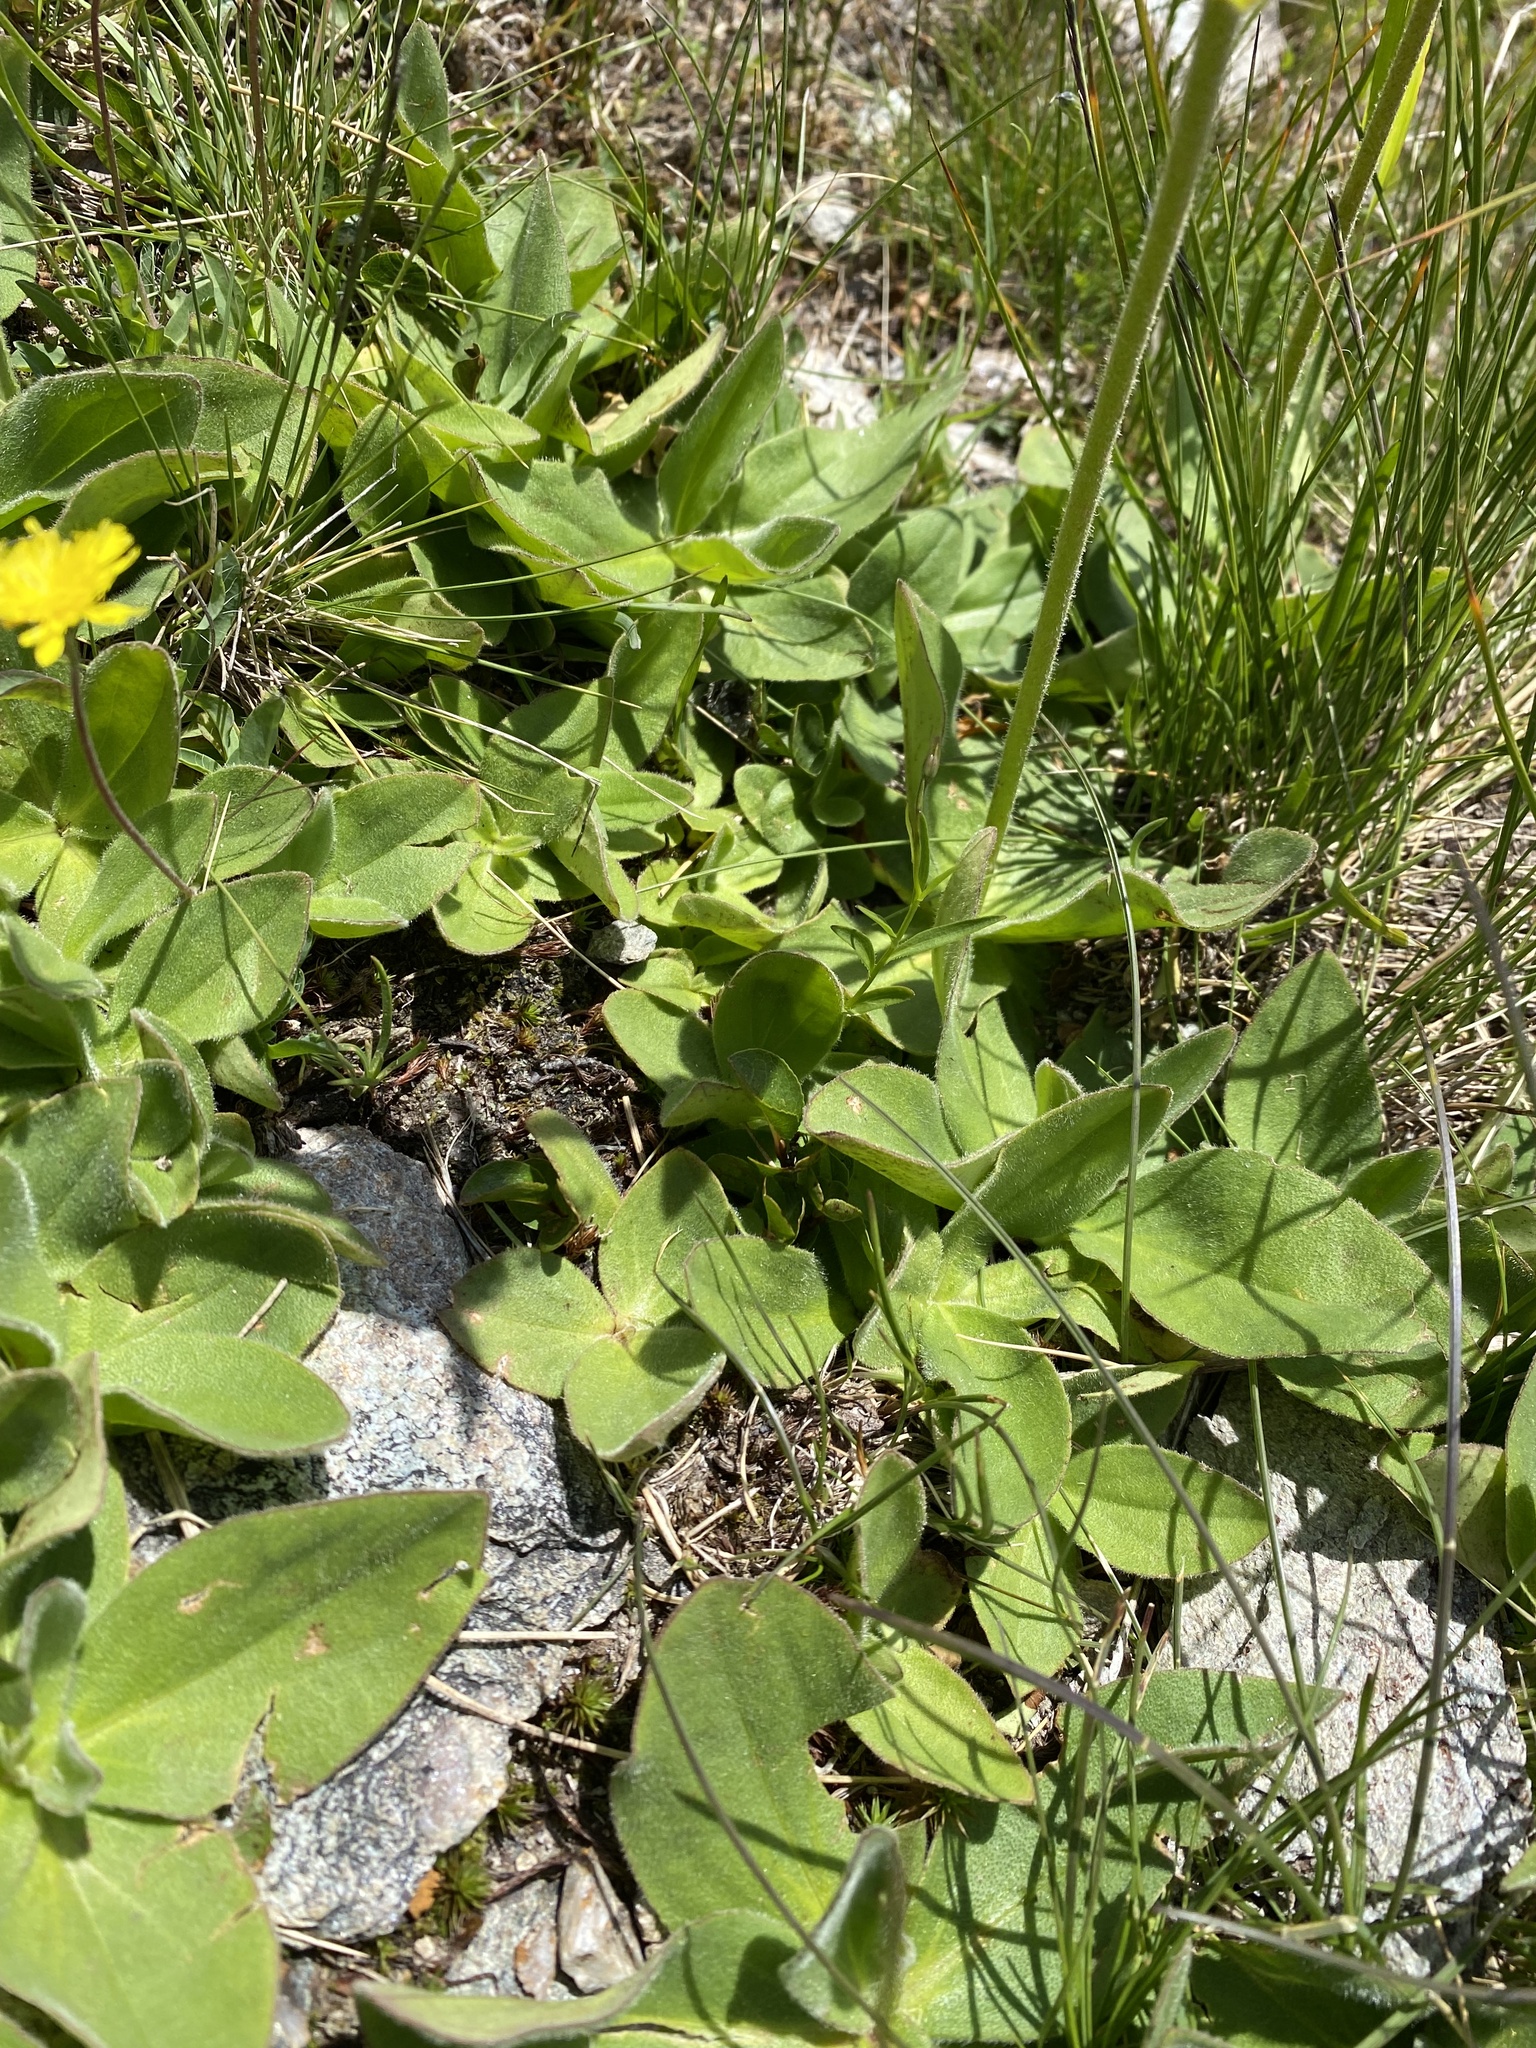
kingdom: Plantae
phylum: Tracheophyta
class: Magnoliopsida
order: Asterales
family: Asteraceae
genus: Arnica
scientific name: Arnica montana
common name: Leopard's bane
